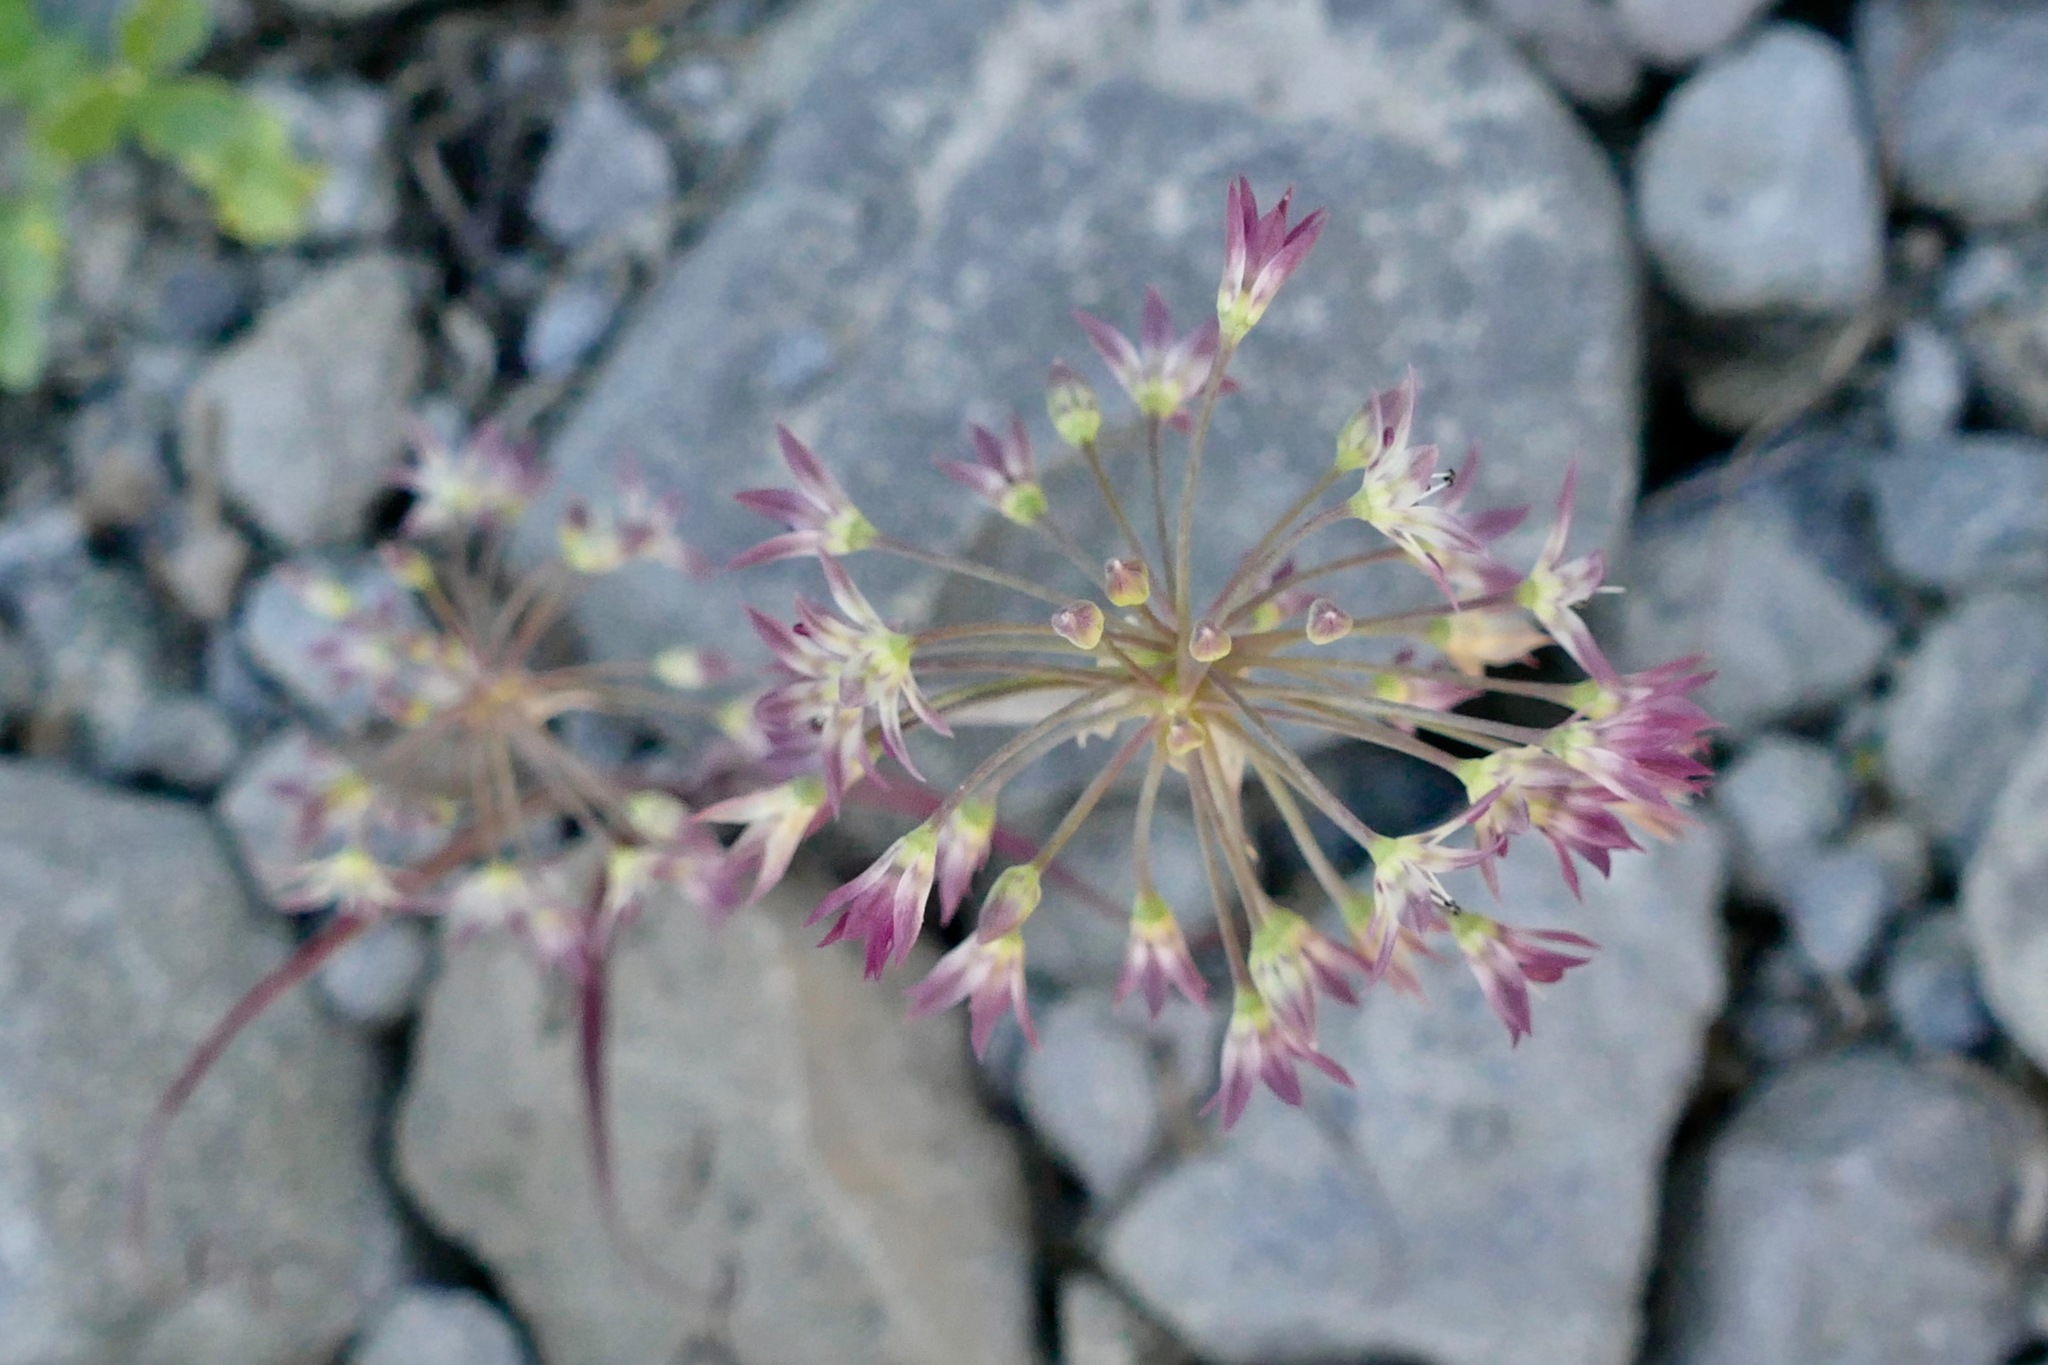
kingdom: Plantae
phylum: Tracheophyta
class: Liliopsida
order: Asparagales
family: Amaryllidaceae
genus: Allium
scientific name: Allium campanulatum
